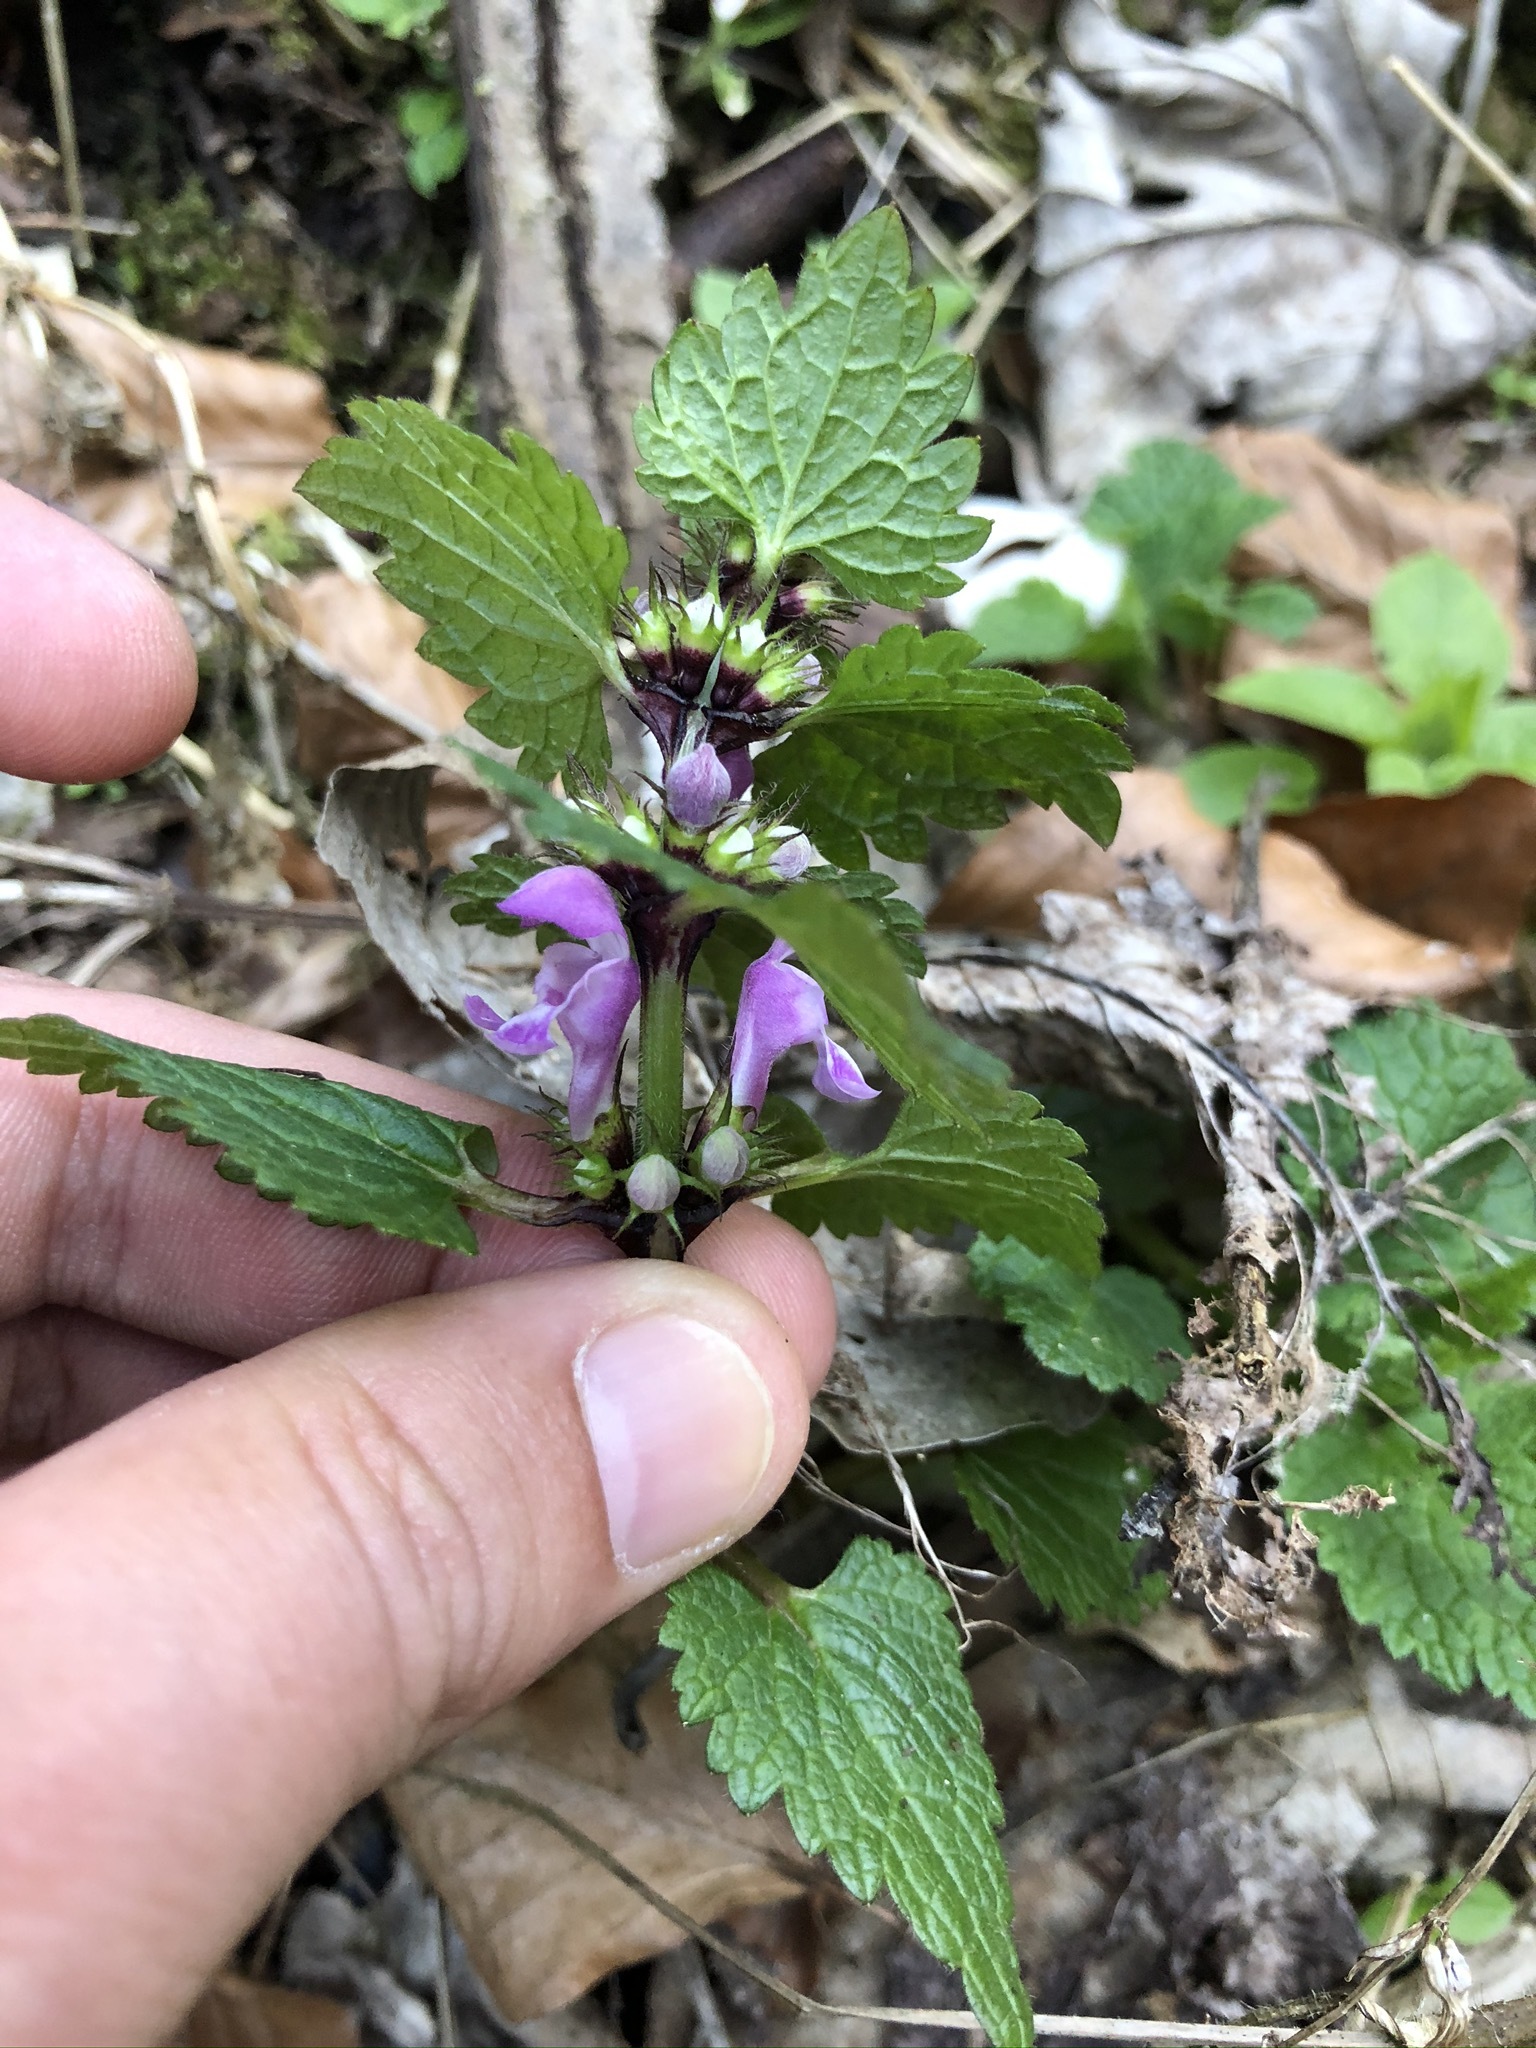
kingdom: Plantae
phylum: Tracheophyta
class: Magnoliopsida
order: Lamiales
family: Lamiaceae
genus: Lamium
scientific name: Lamium maculatum
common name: Spotted dead-nettle
